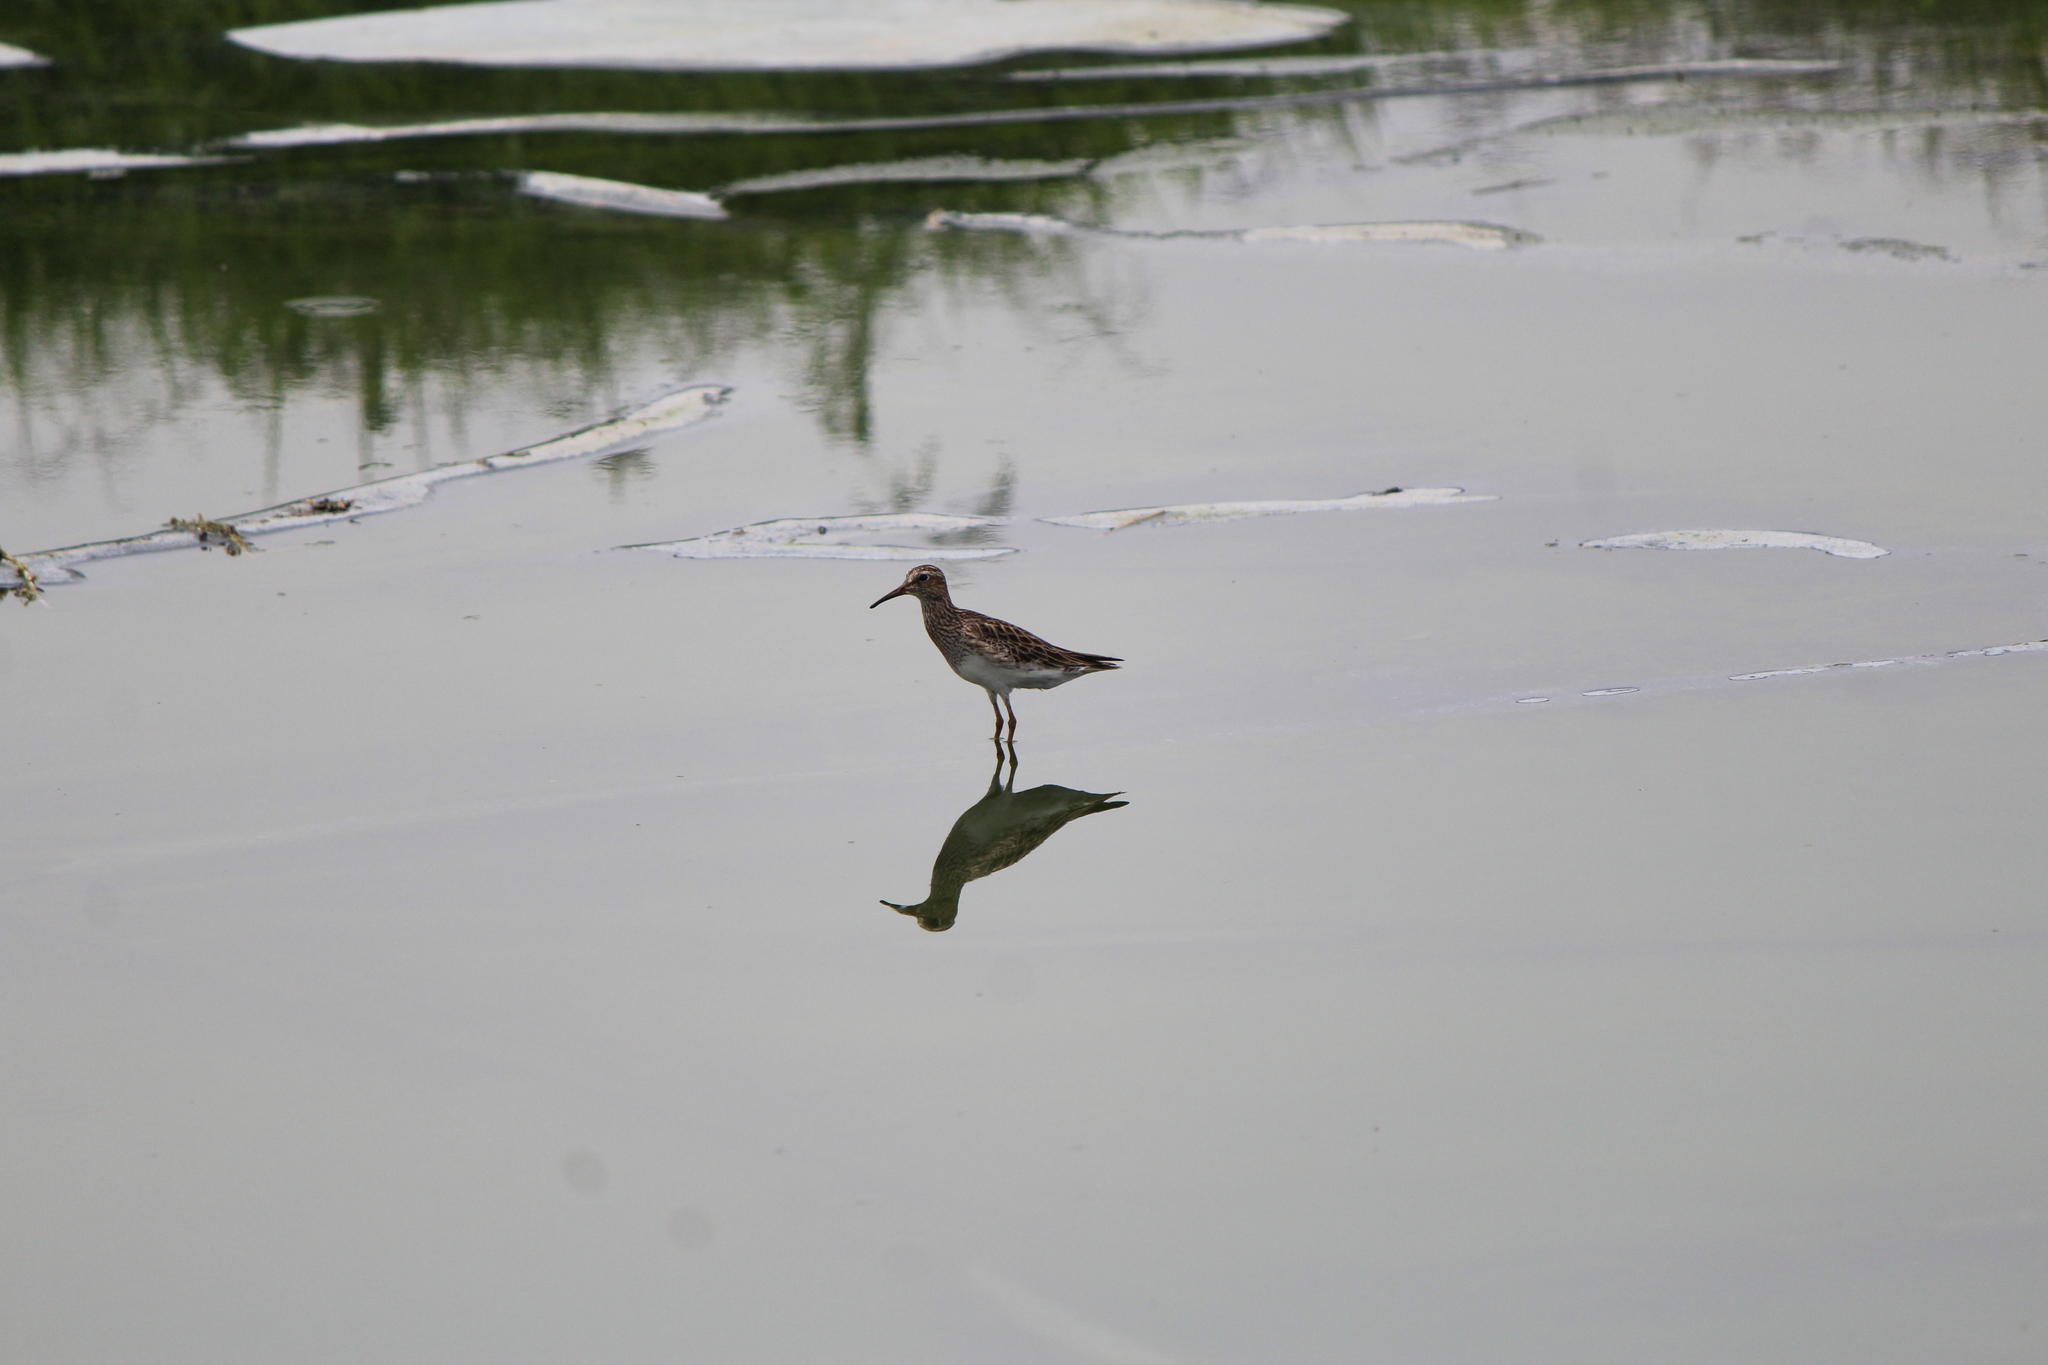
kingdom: Animalia
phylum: Chordata
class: Aves
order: Charadriiformes
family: Scolopacidae
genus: Calidris
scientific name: Calidris melanotos
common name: Pectoral sandpiper
